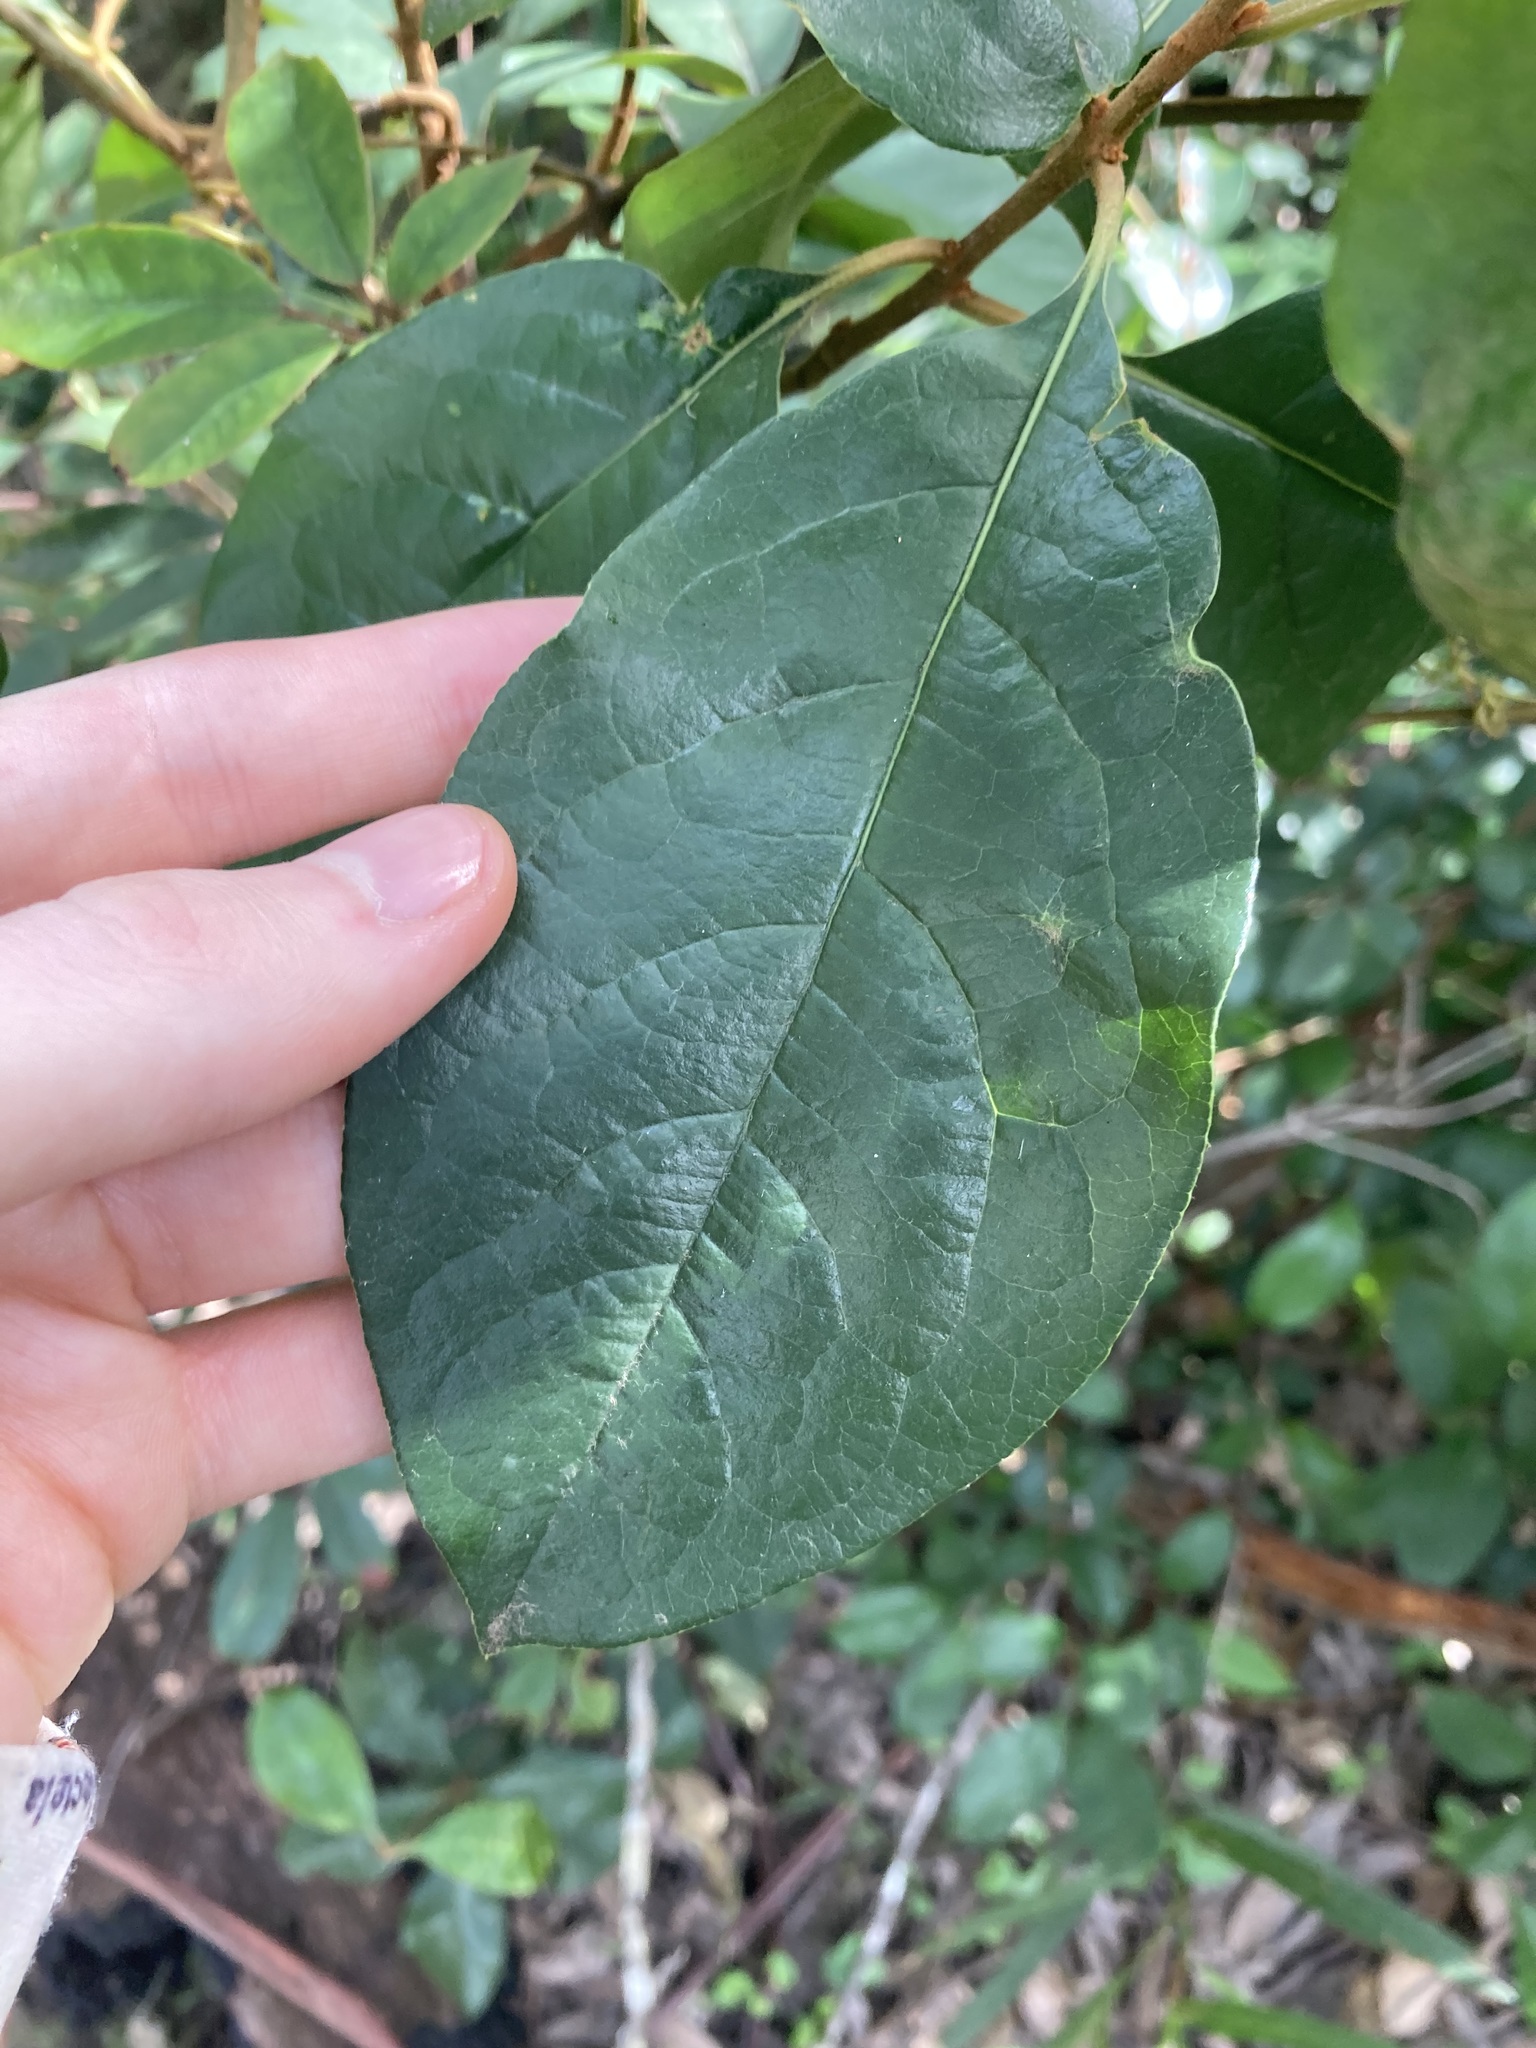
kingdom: Plantae
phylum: Tracheophyta
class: Magnoliopsida
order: Apiales
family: Pittosporaceae
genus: Pittosporum
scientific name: Pittosporum revolutum
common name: Brisbane-laurel
